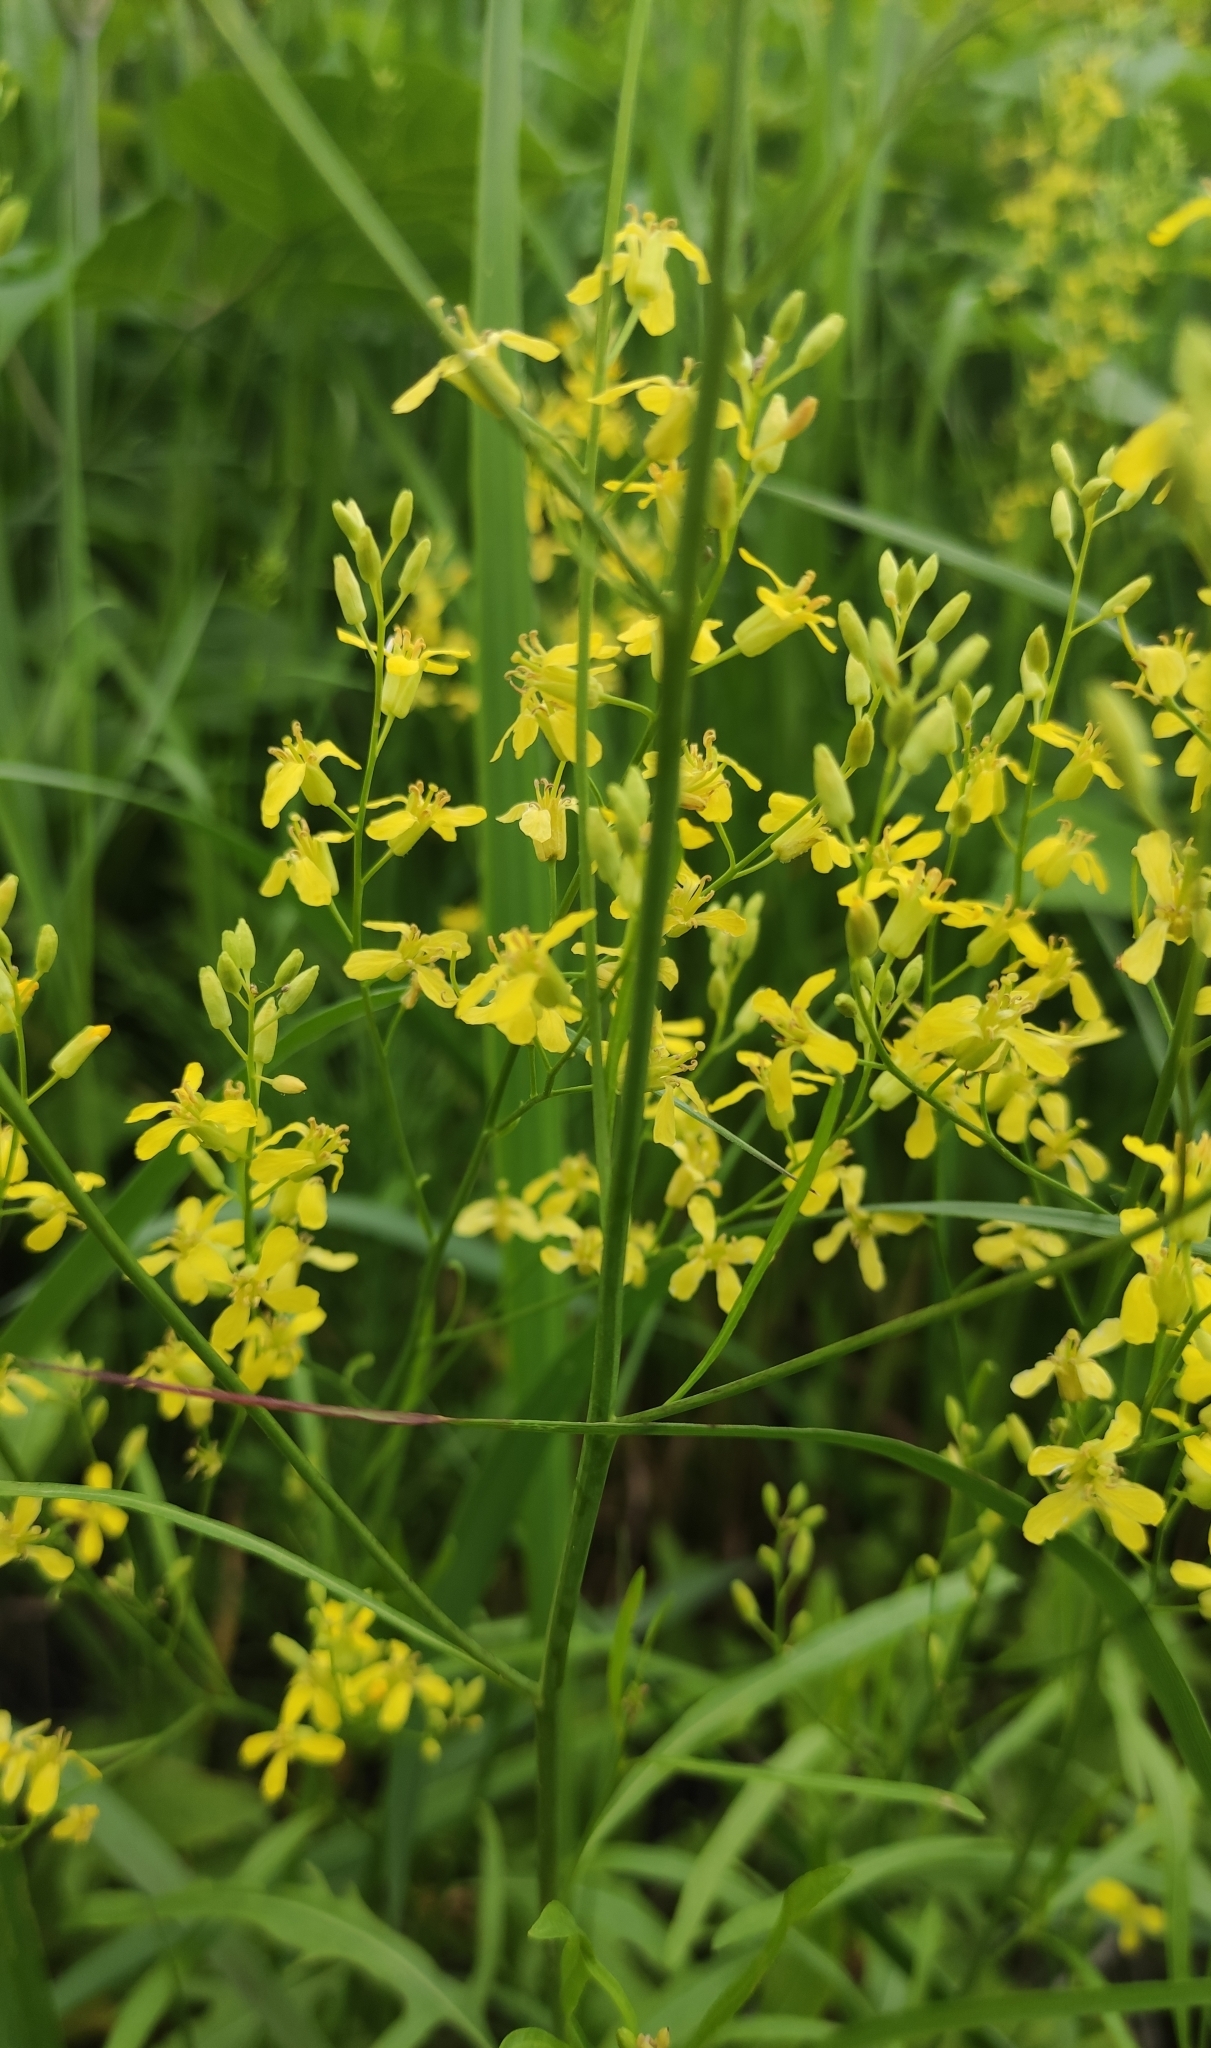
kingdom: Plantae
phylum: Tracheophyta
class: Magnoliopsida
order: Brassicales
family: Brassicaceae
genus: Sisymbrium
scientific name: Sisymbrium volgense
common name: Russian mustard
